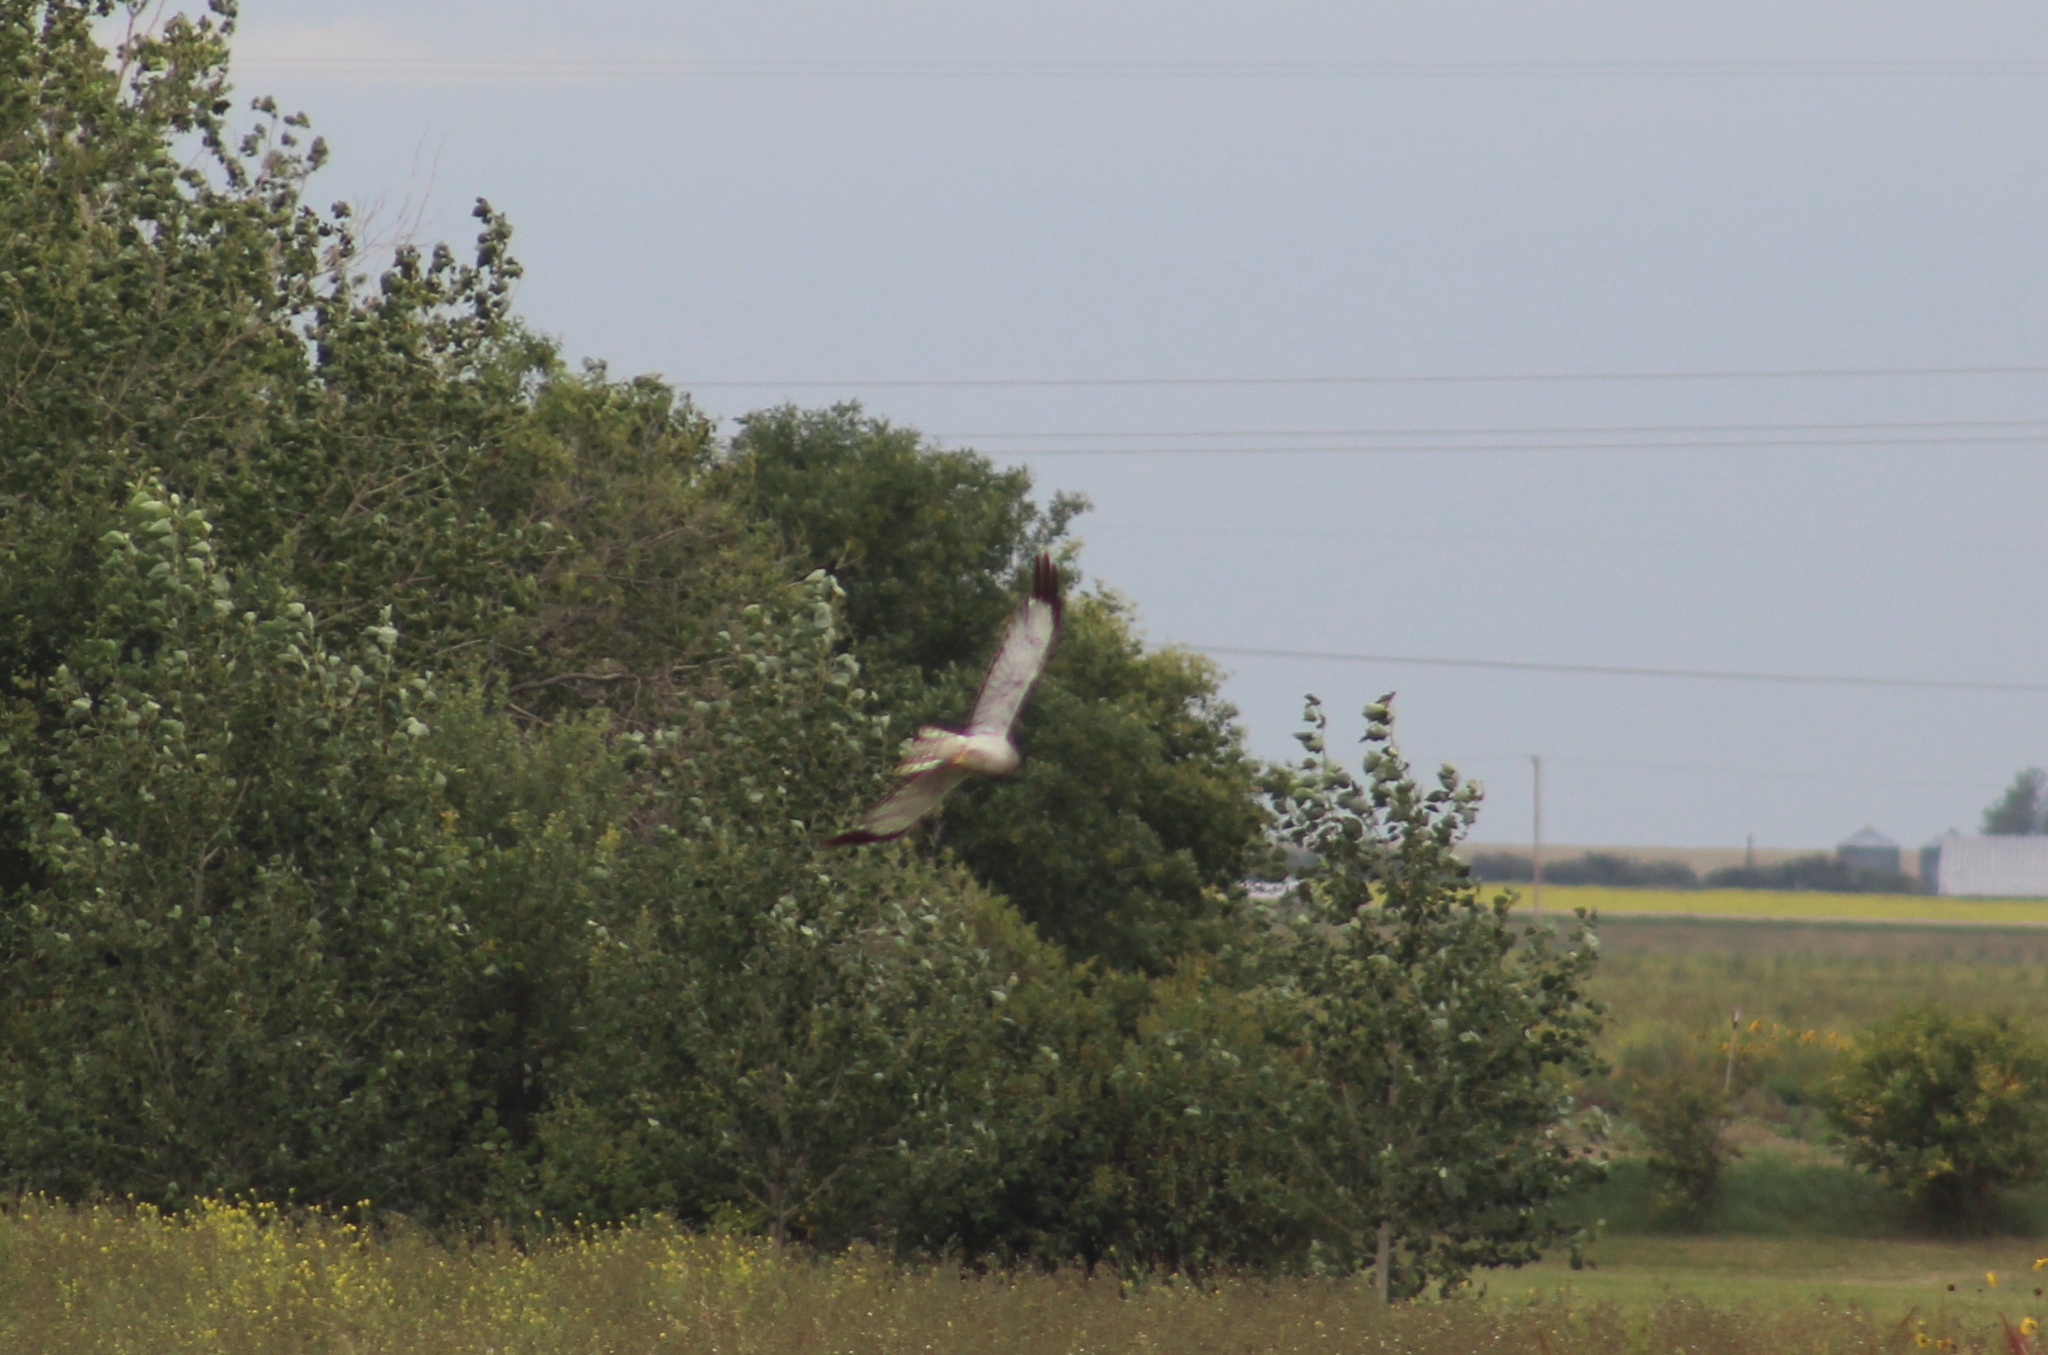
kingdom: Animalia
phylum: Chordata
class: Aves
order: Accipitriformes
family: Accipitridae
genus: Circus
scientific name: Circus cyaneus
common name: Hen harrier
